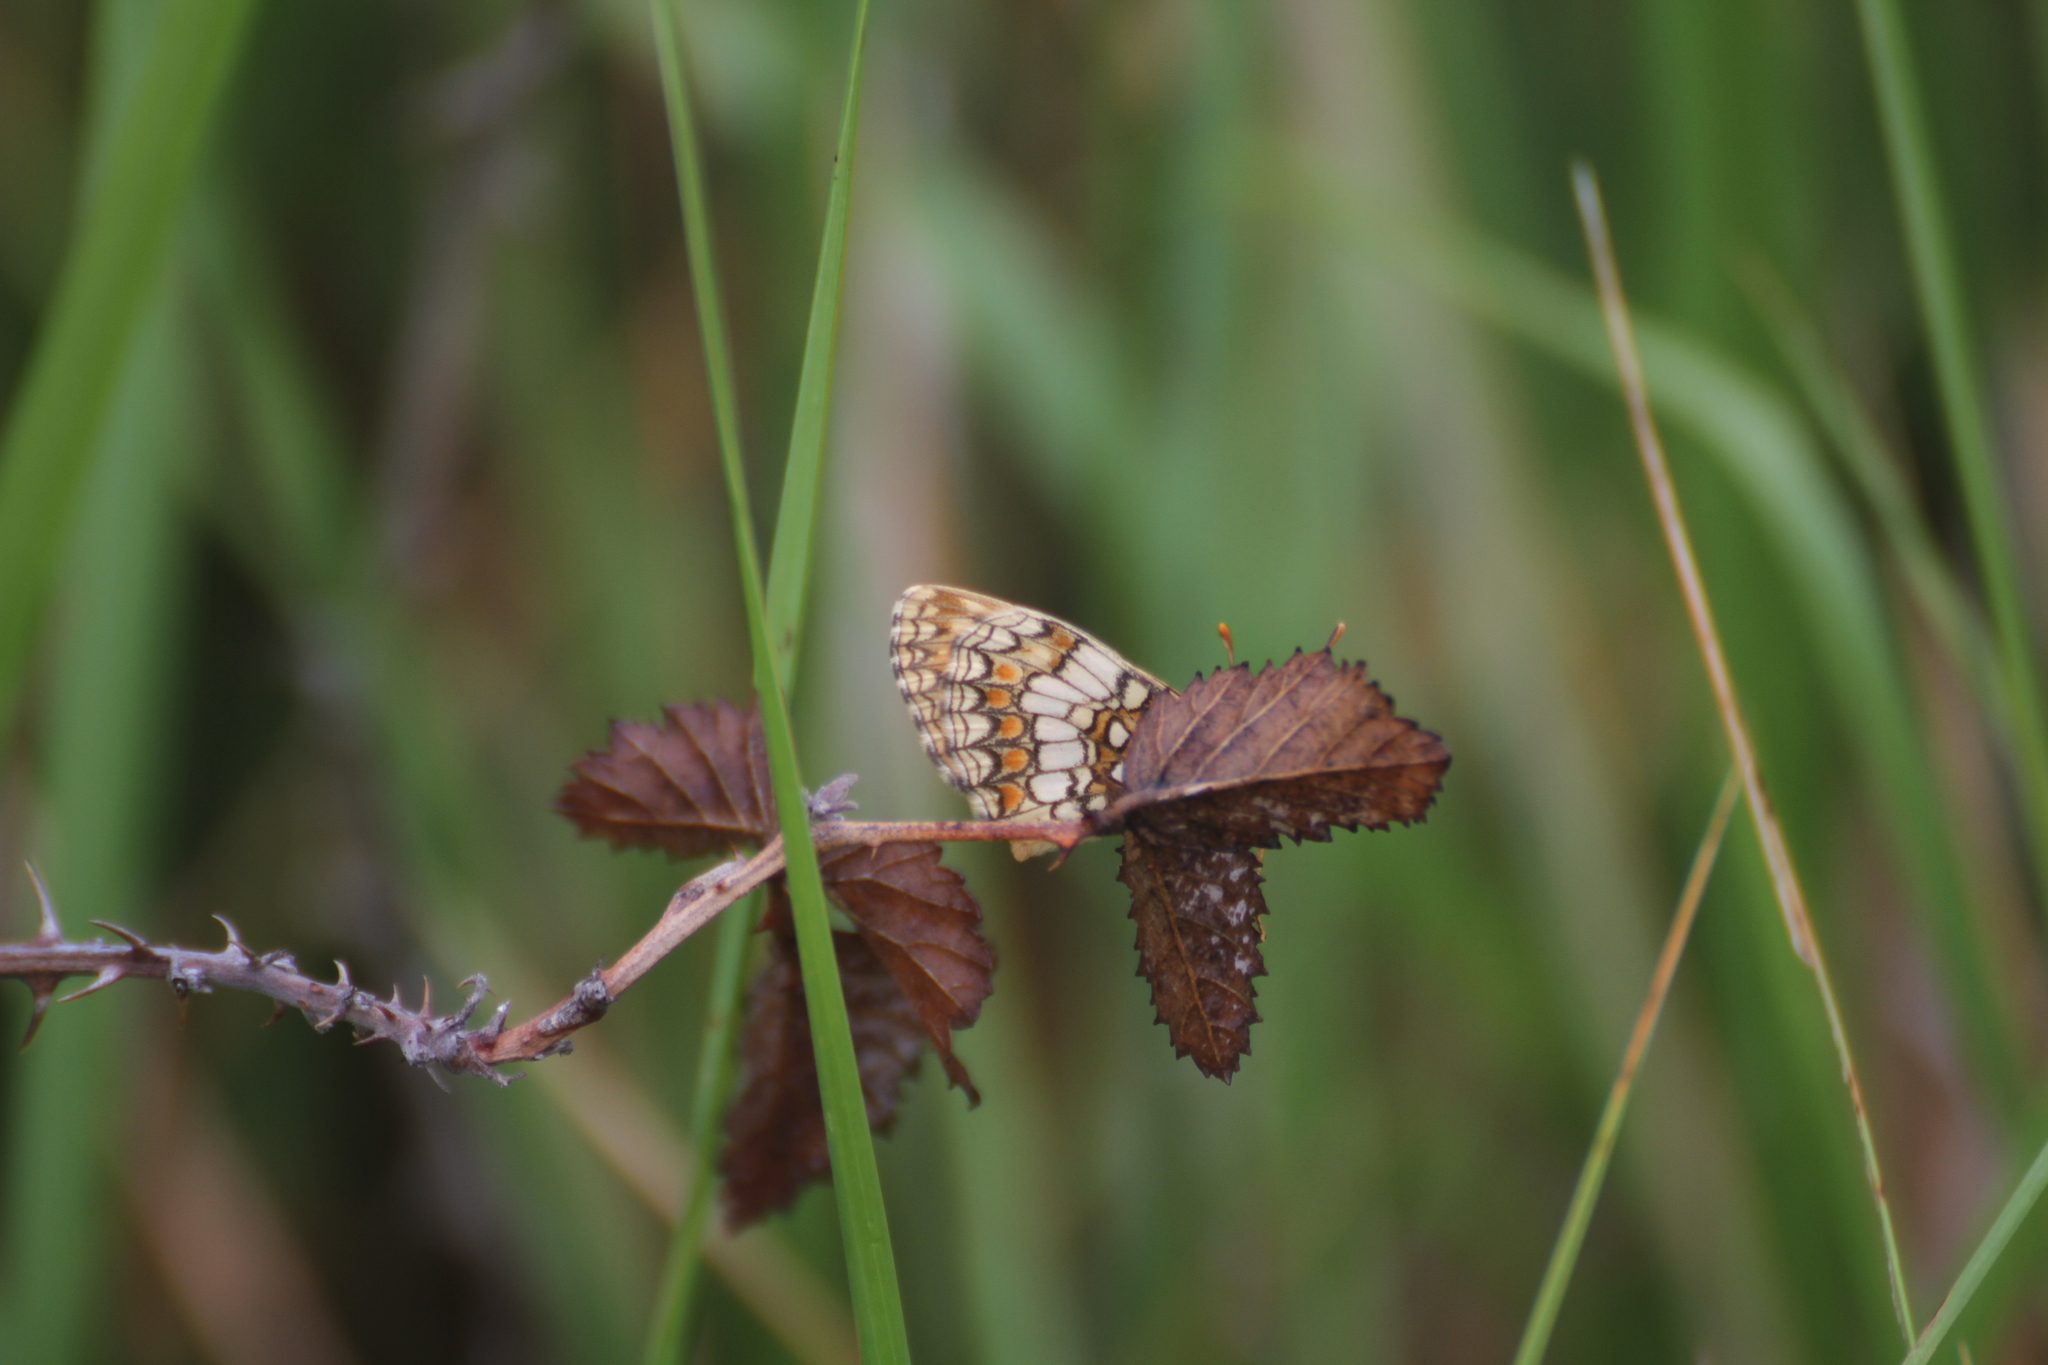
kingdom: Animalia
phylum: Arthropoda
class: Insecta
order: Lepidoptera
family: Nymphalidae
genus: Mellicta
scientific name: Mellicta athalia
